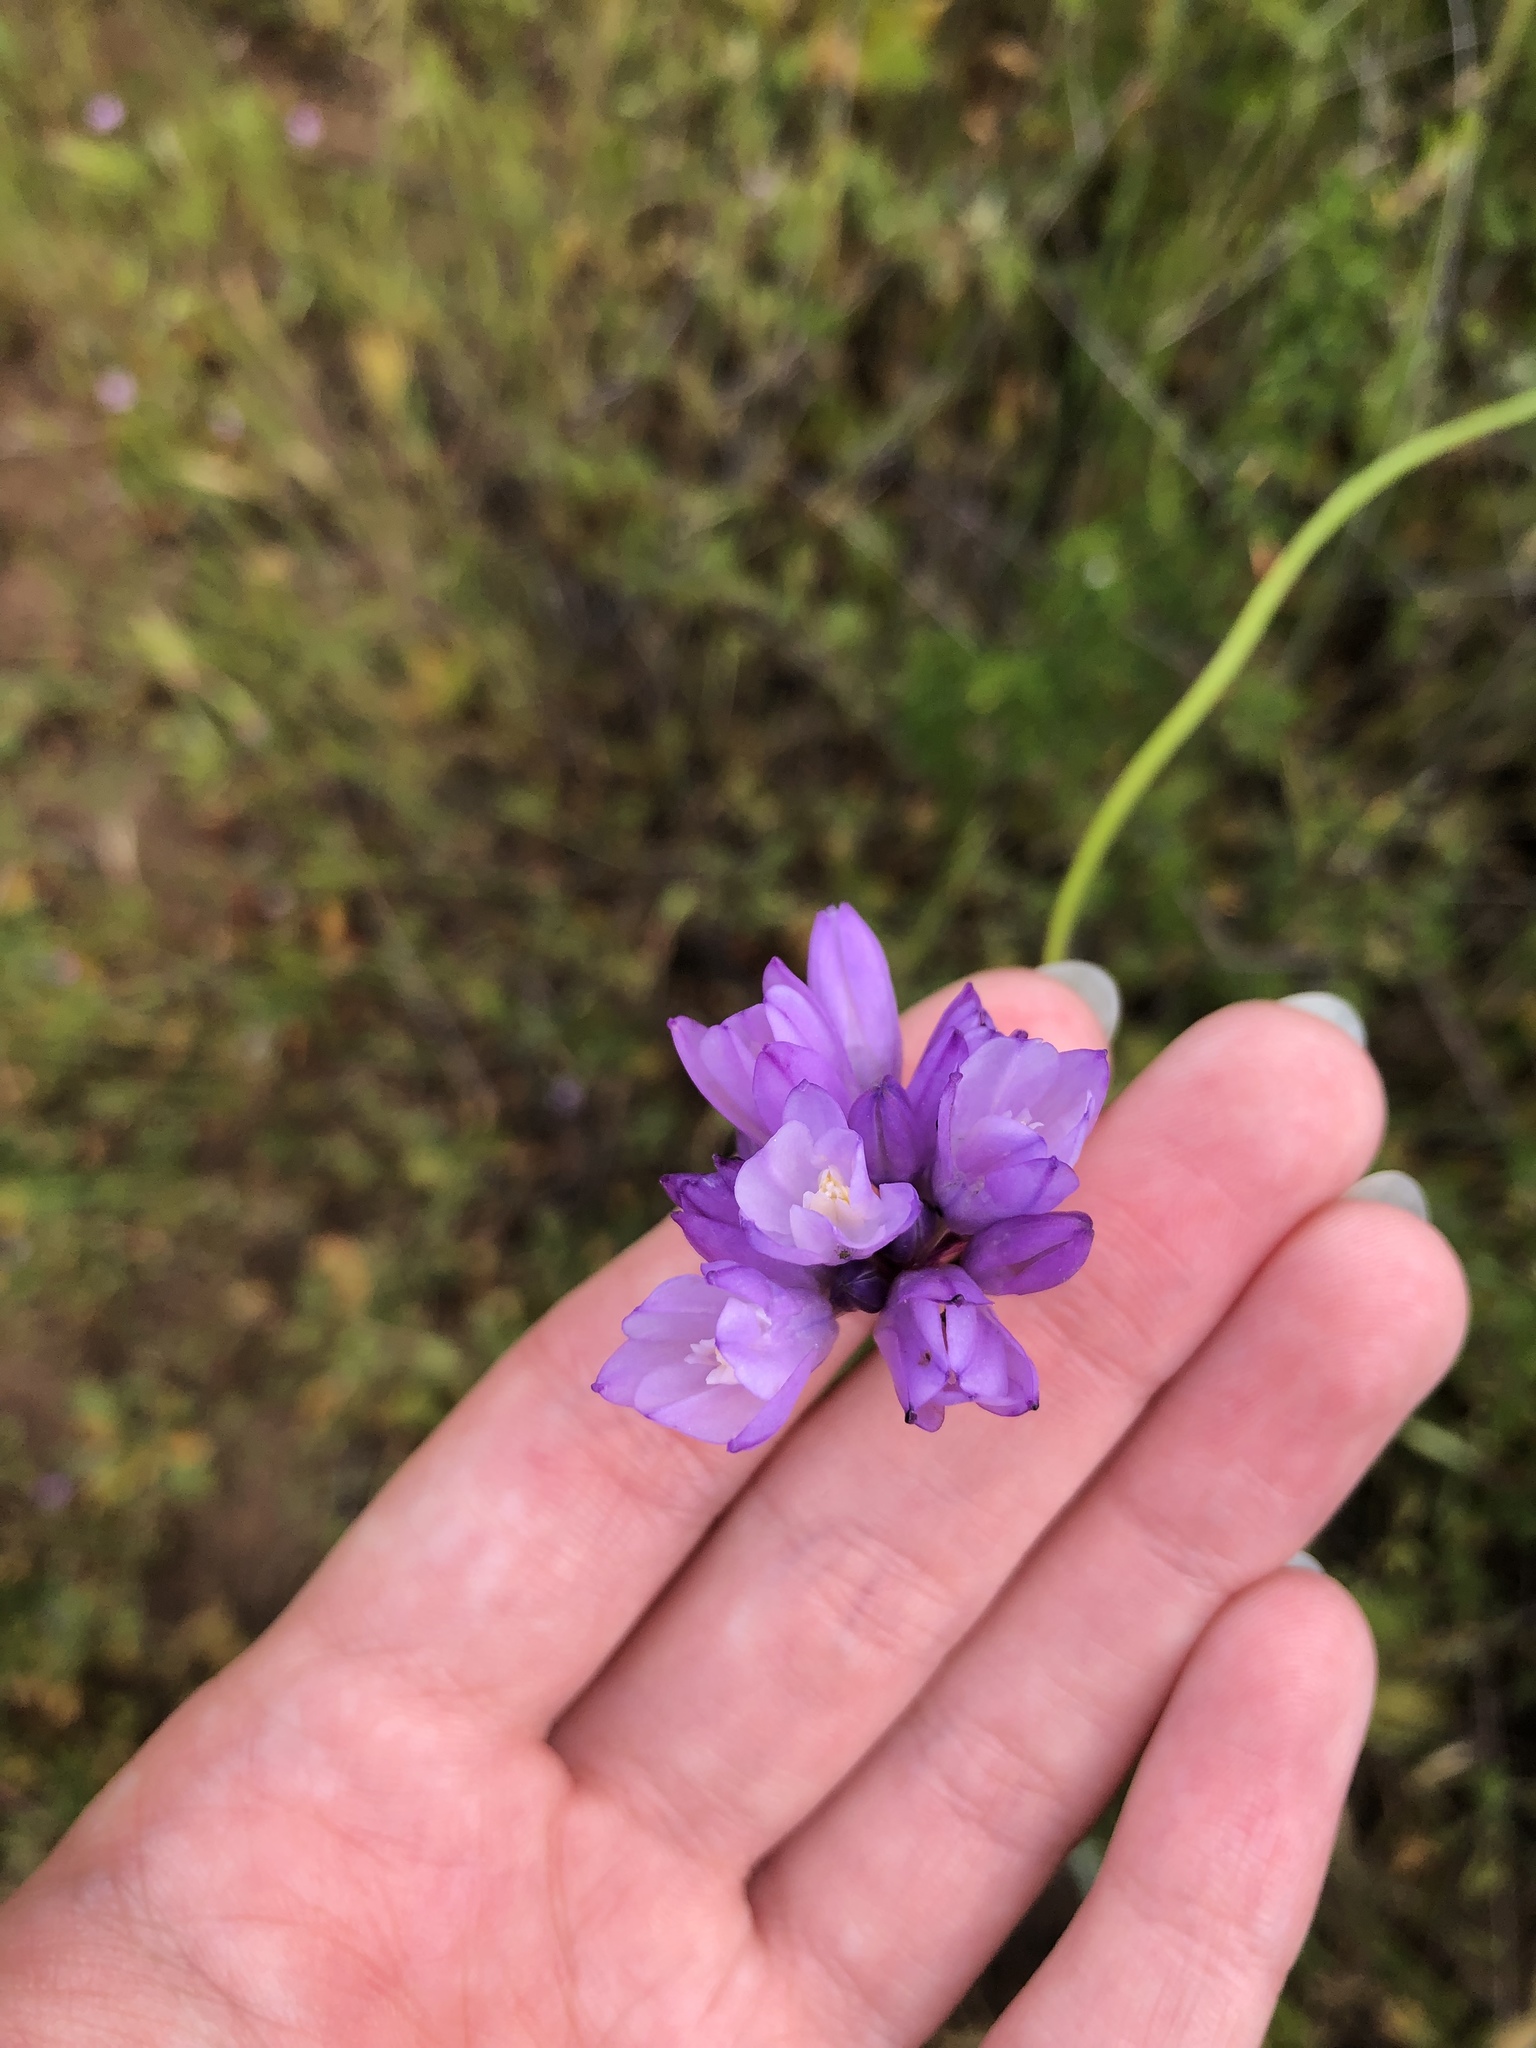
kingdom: Plantae
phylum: Tracheophyta
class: Liliopsida
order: Asparagales
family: Asparagaceae
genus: Dipterostemon
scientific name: Dipterostemon capitatus
